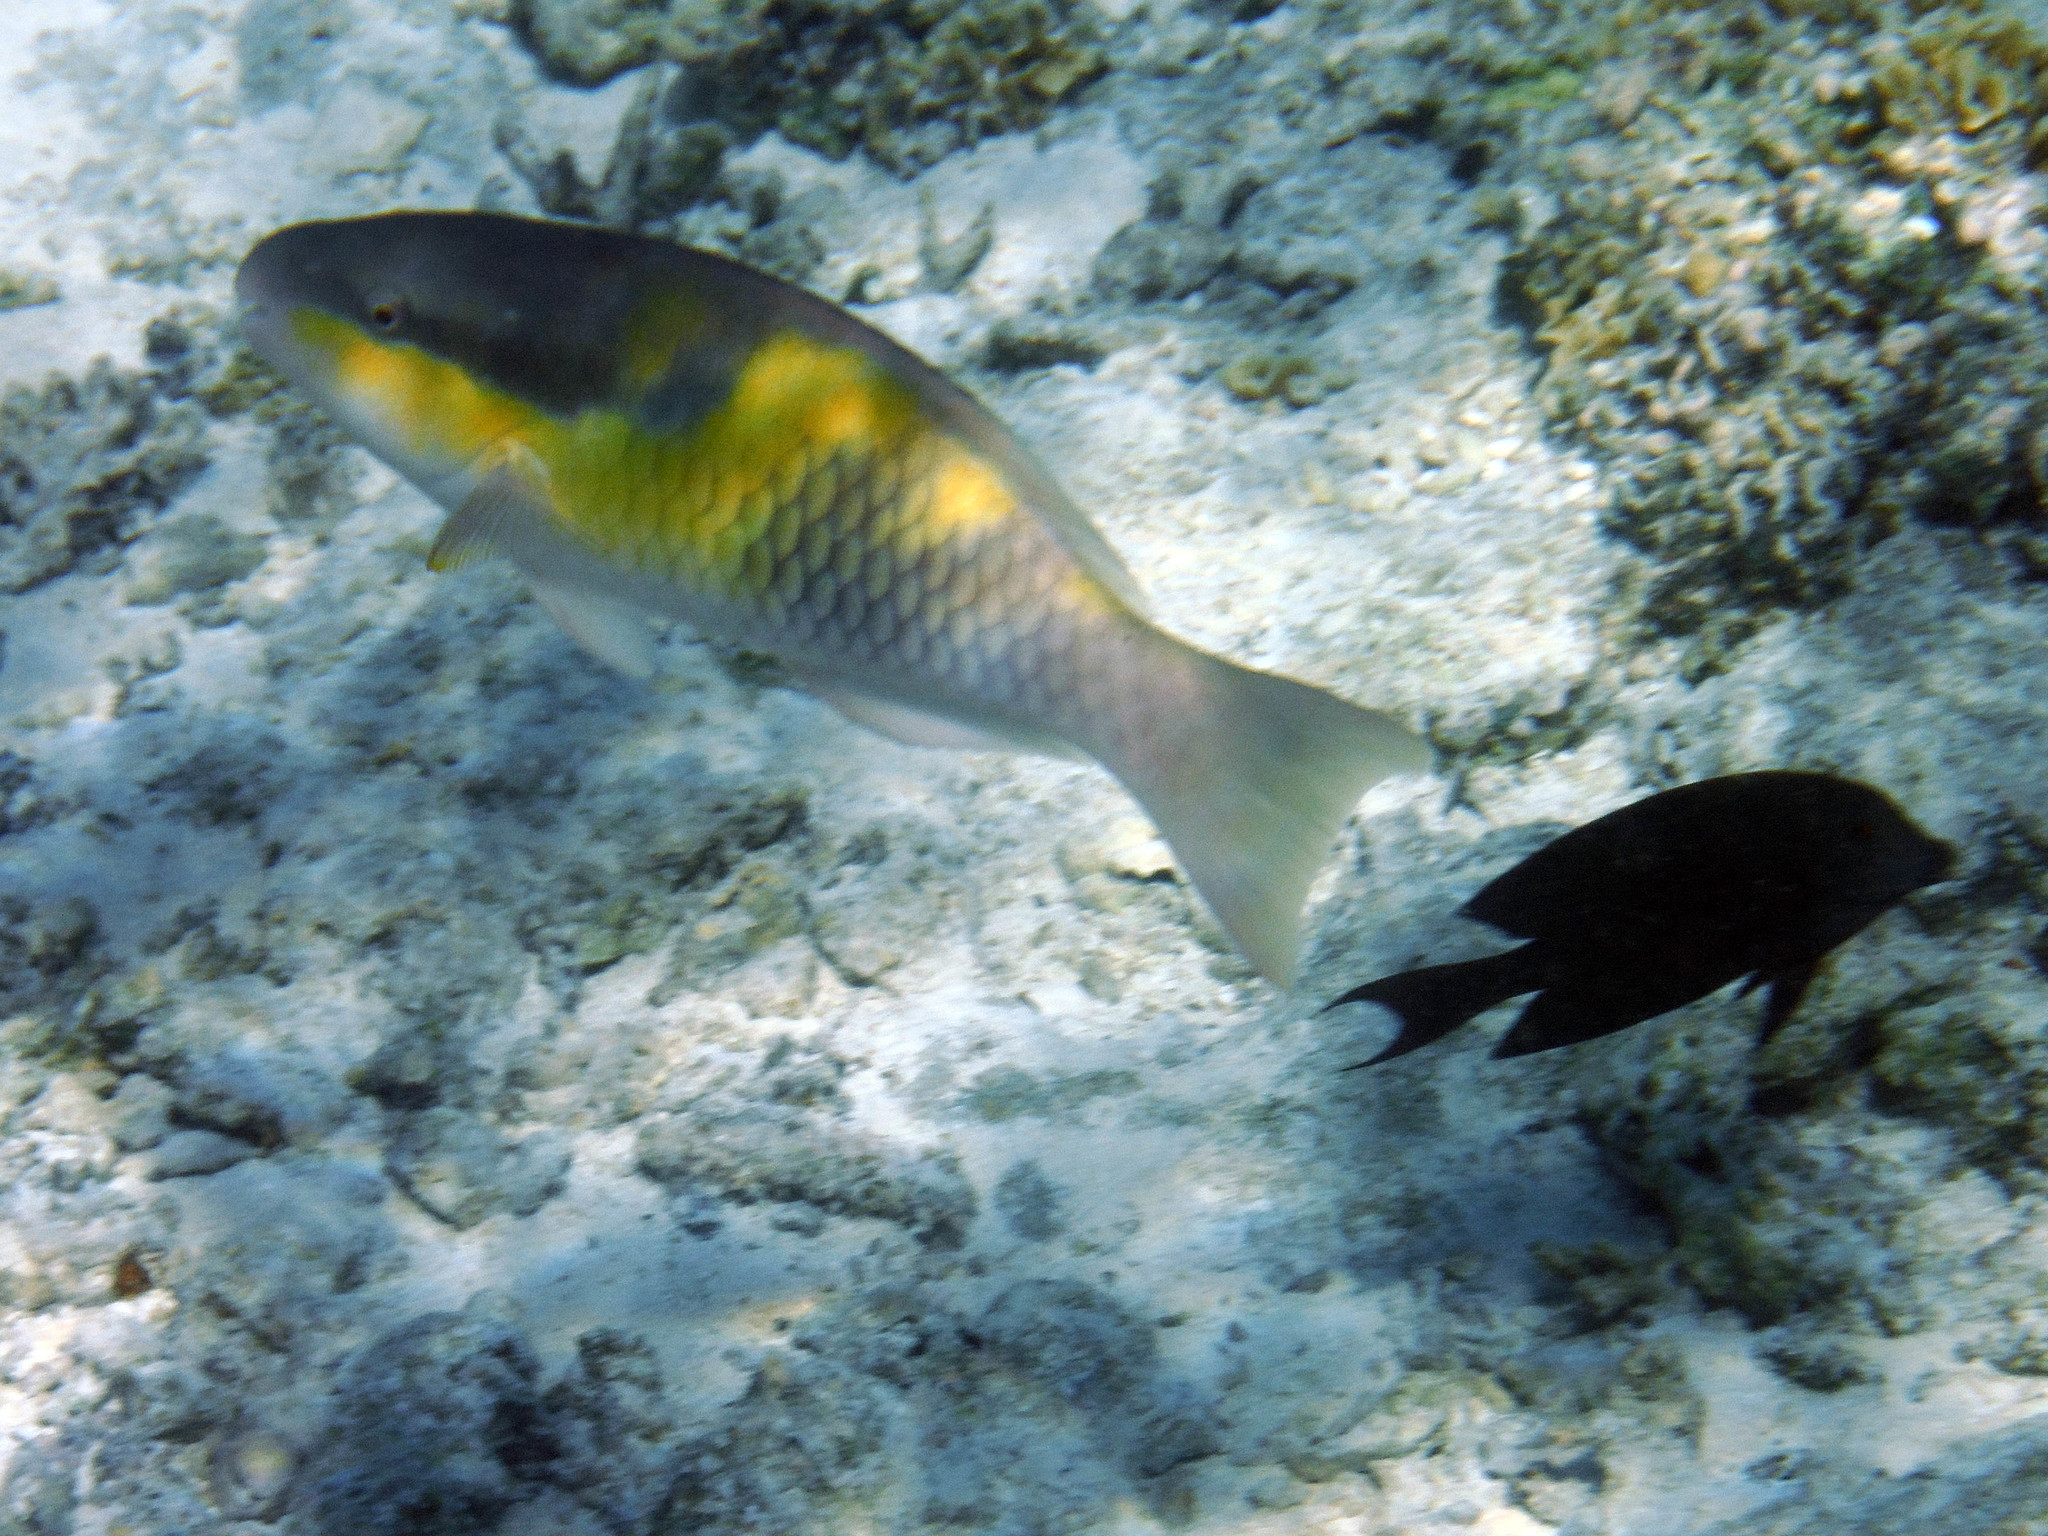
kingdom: Animalia
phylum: Chordata
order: Perciformes
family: Scaridae
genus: Scarus
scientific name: Scarus oviceps
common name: Blue parrotfish
